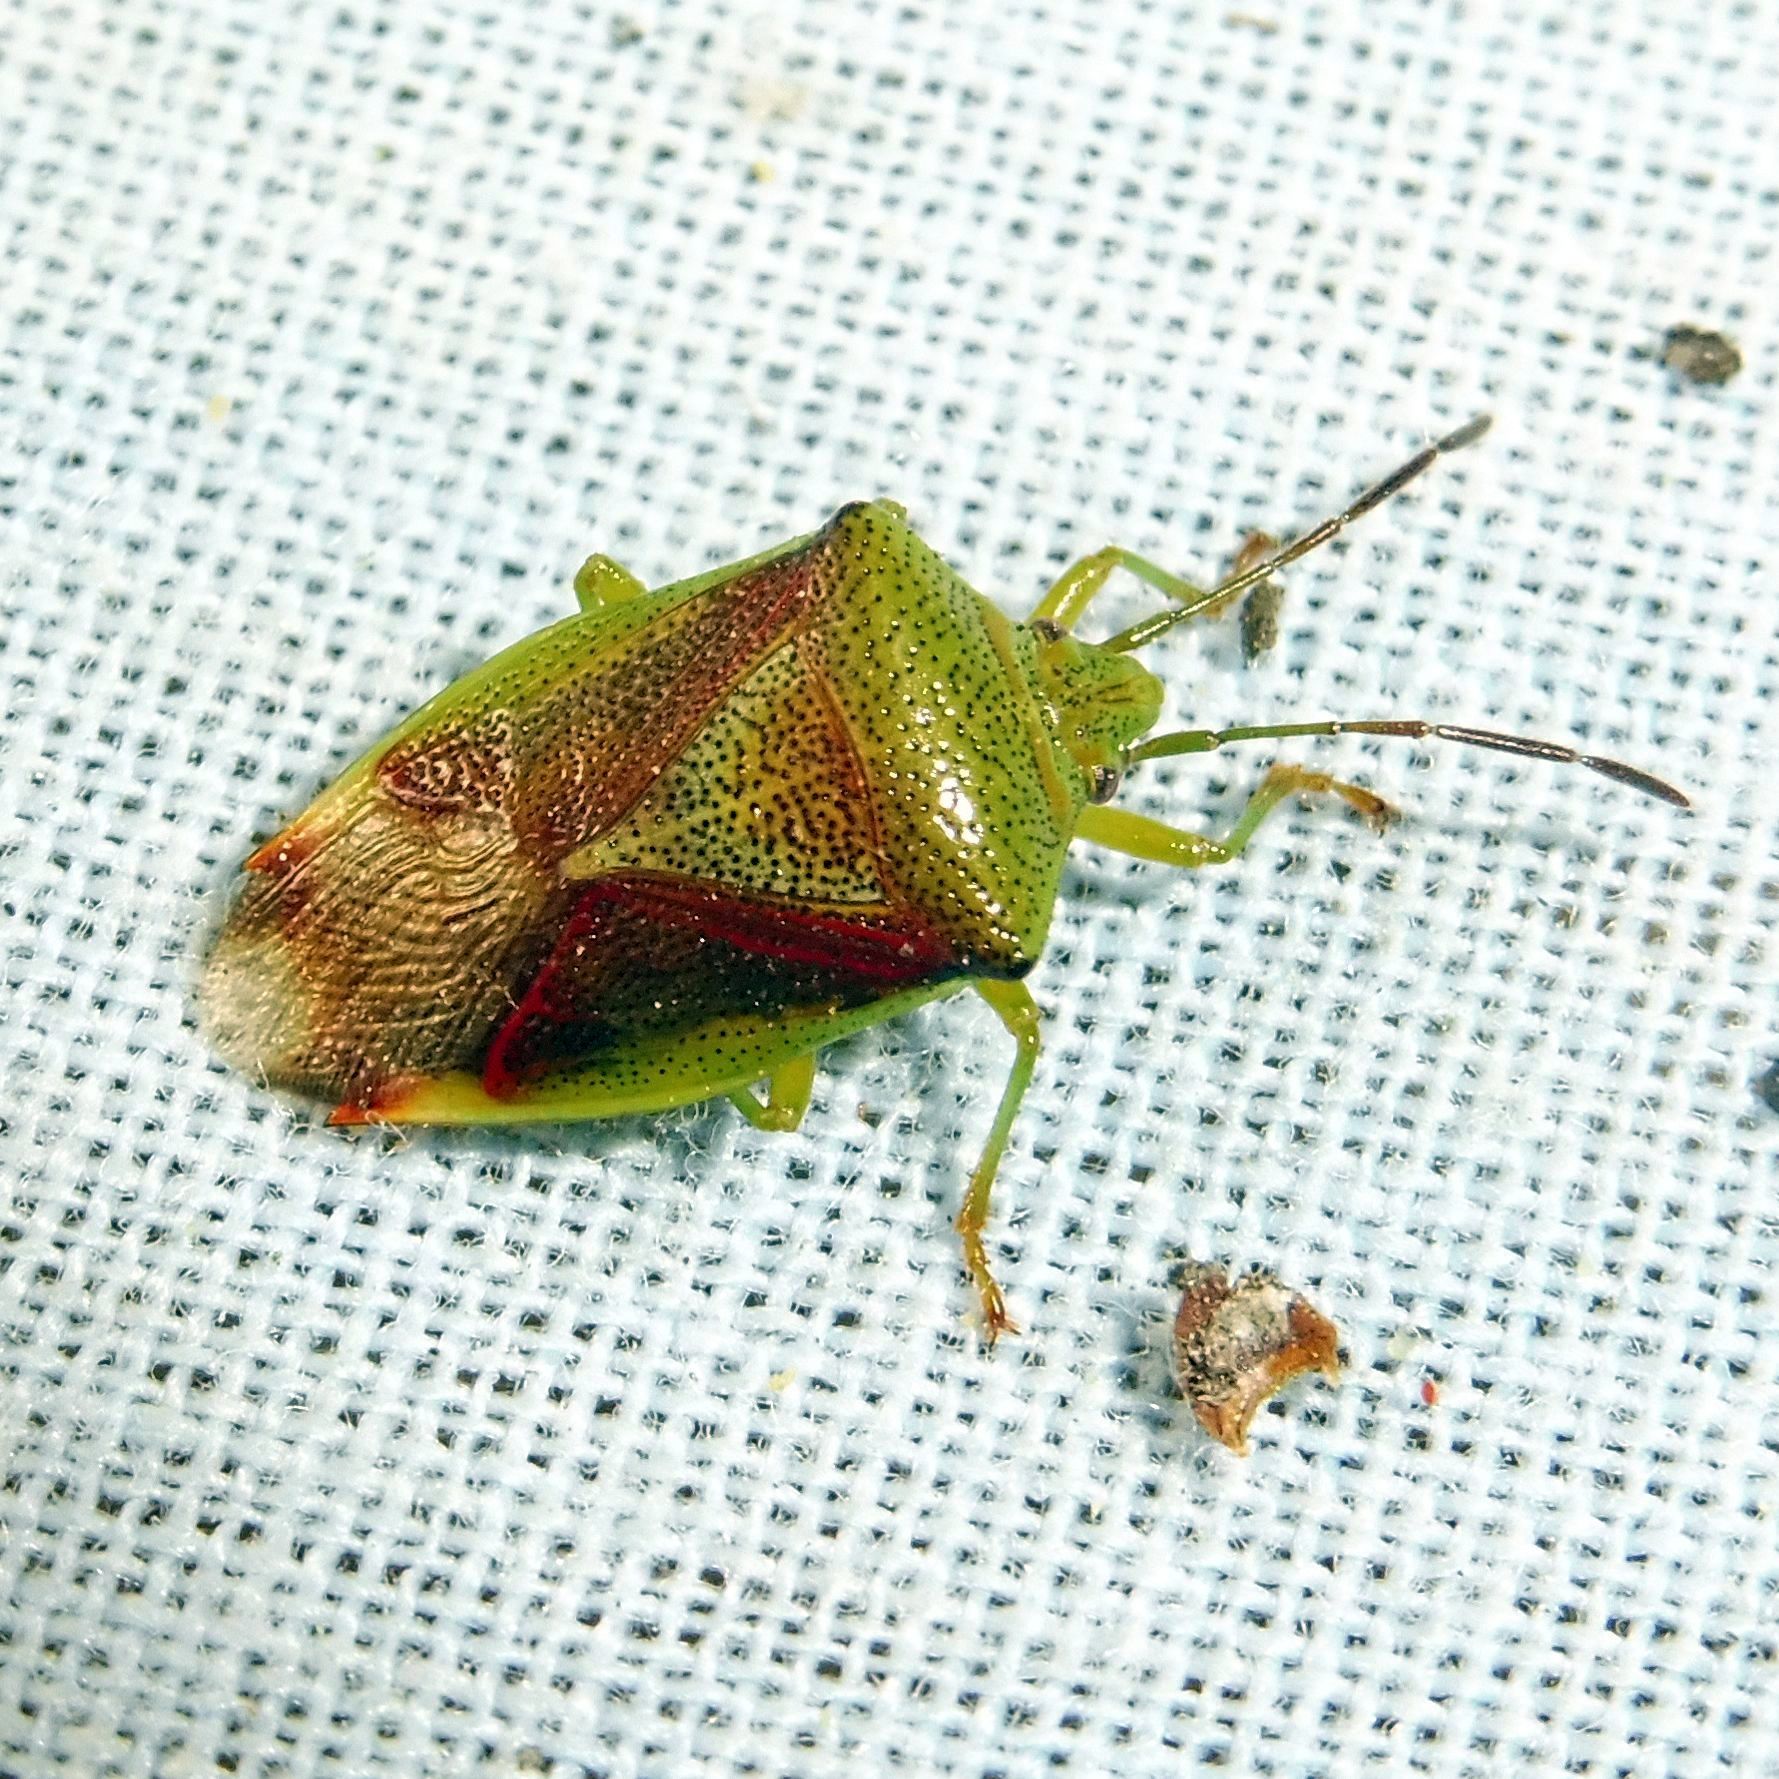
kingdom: Animalia
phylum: Arthropoda
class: Insecta
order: Hemiptera
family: Acanthosomatidae
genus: Elasmostethus
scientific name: Elasmostethus interstinctus
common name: Birch shieldbug
